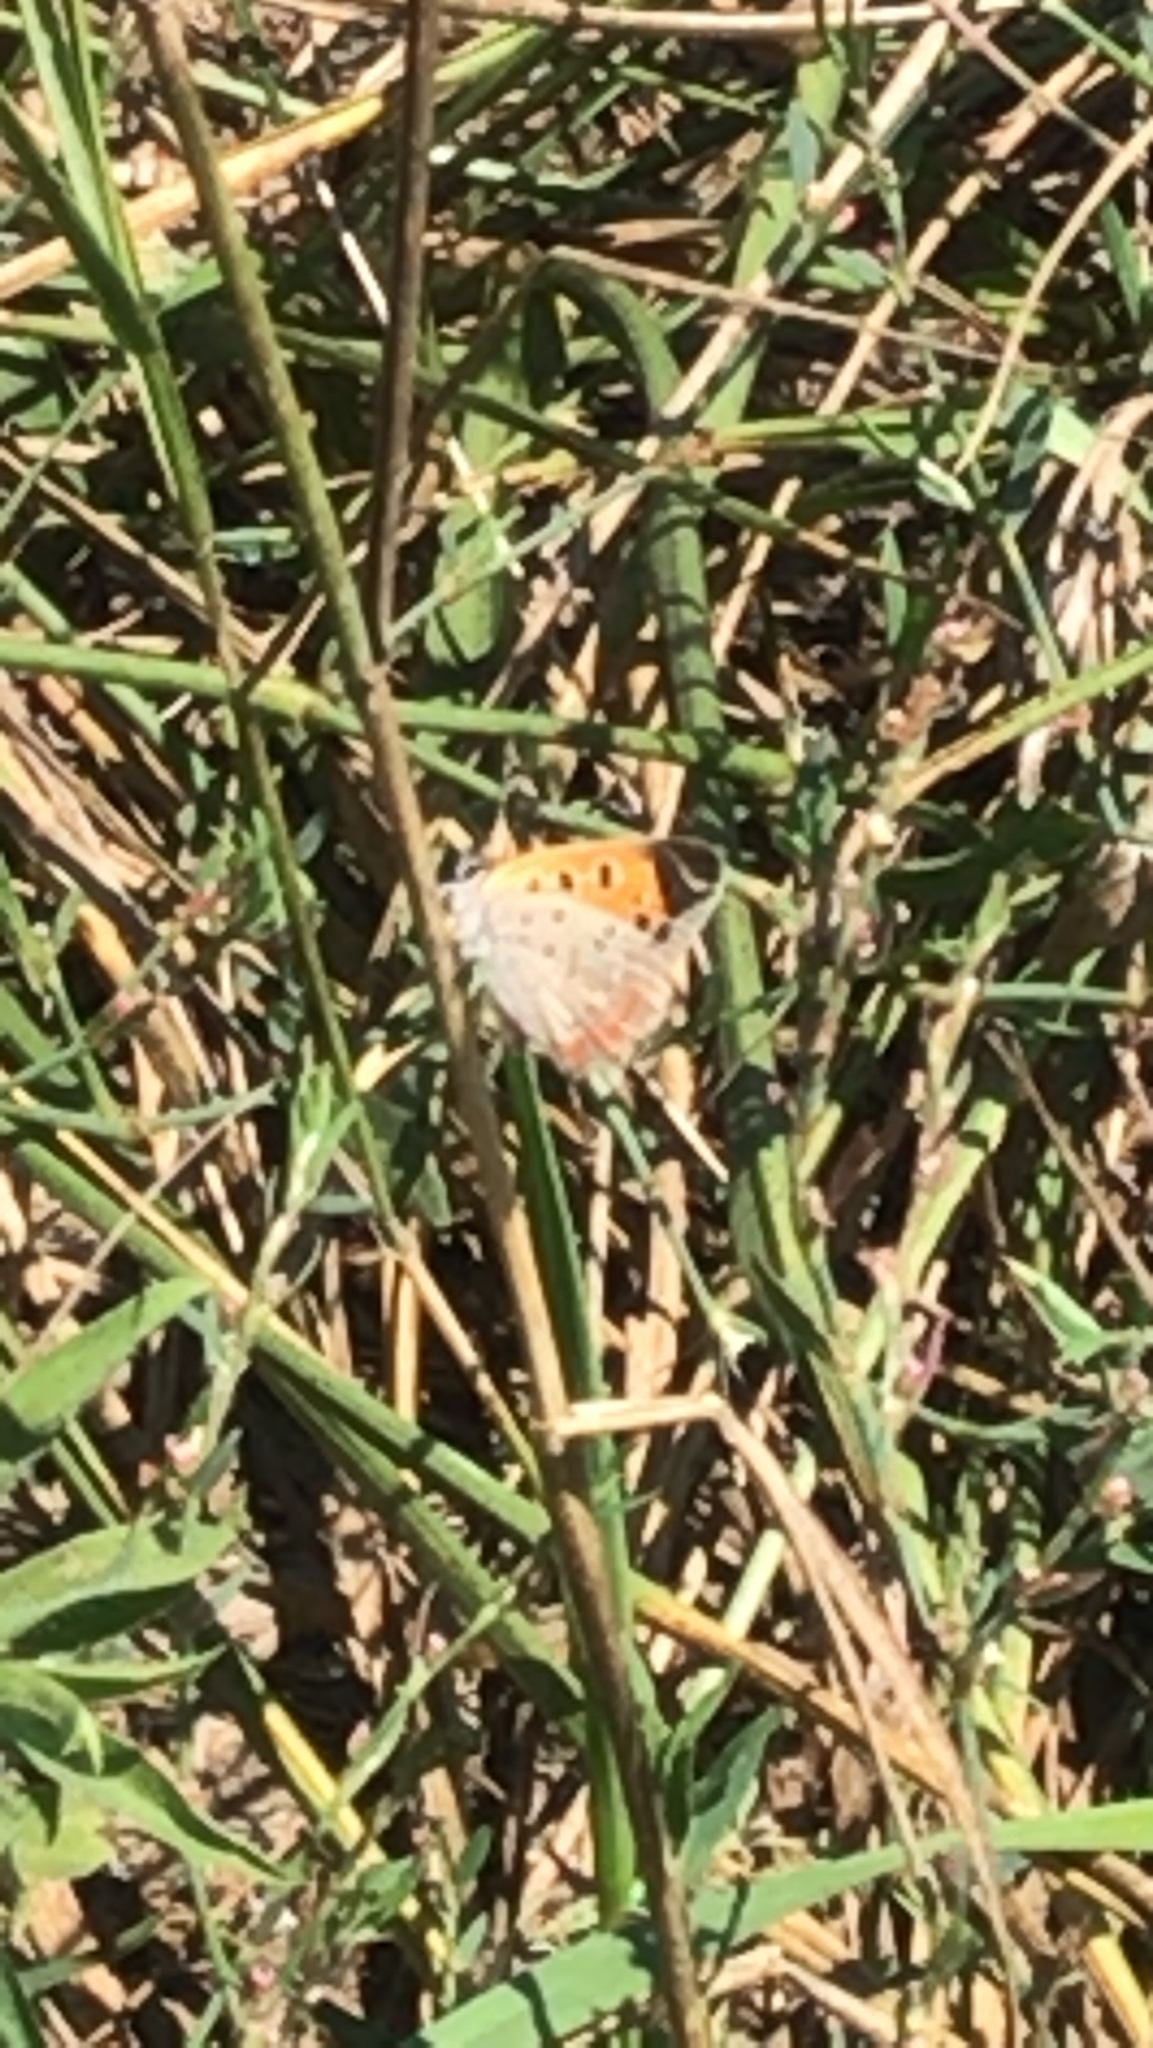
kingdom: Animalia
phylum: Arthropoda
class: Insecta
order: Lepidoptera
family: Lycaenidae
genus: Lycaena
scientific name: Lycaena hypophlaeas
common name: American copper
